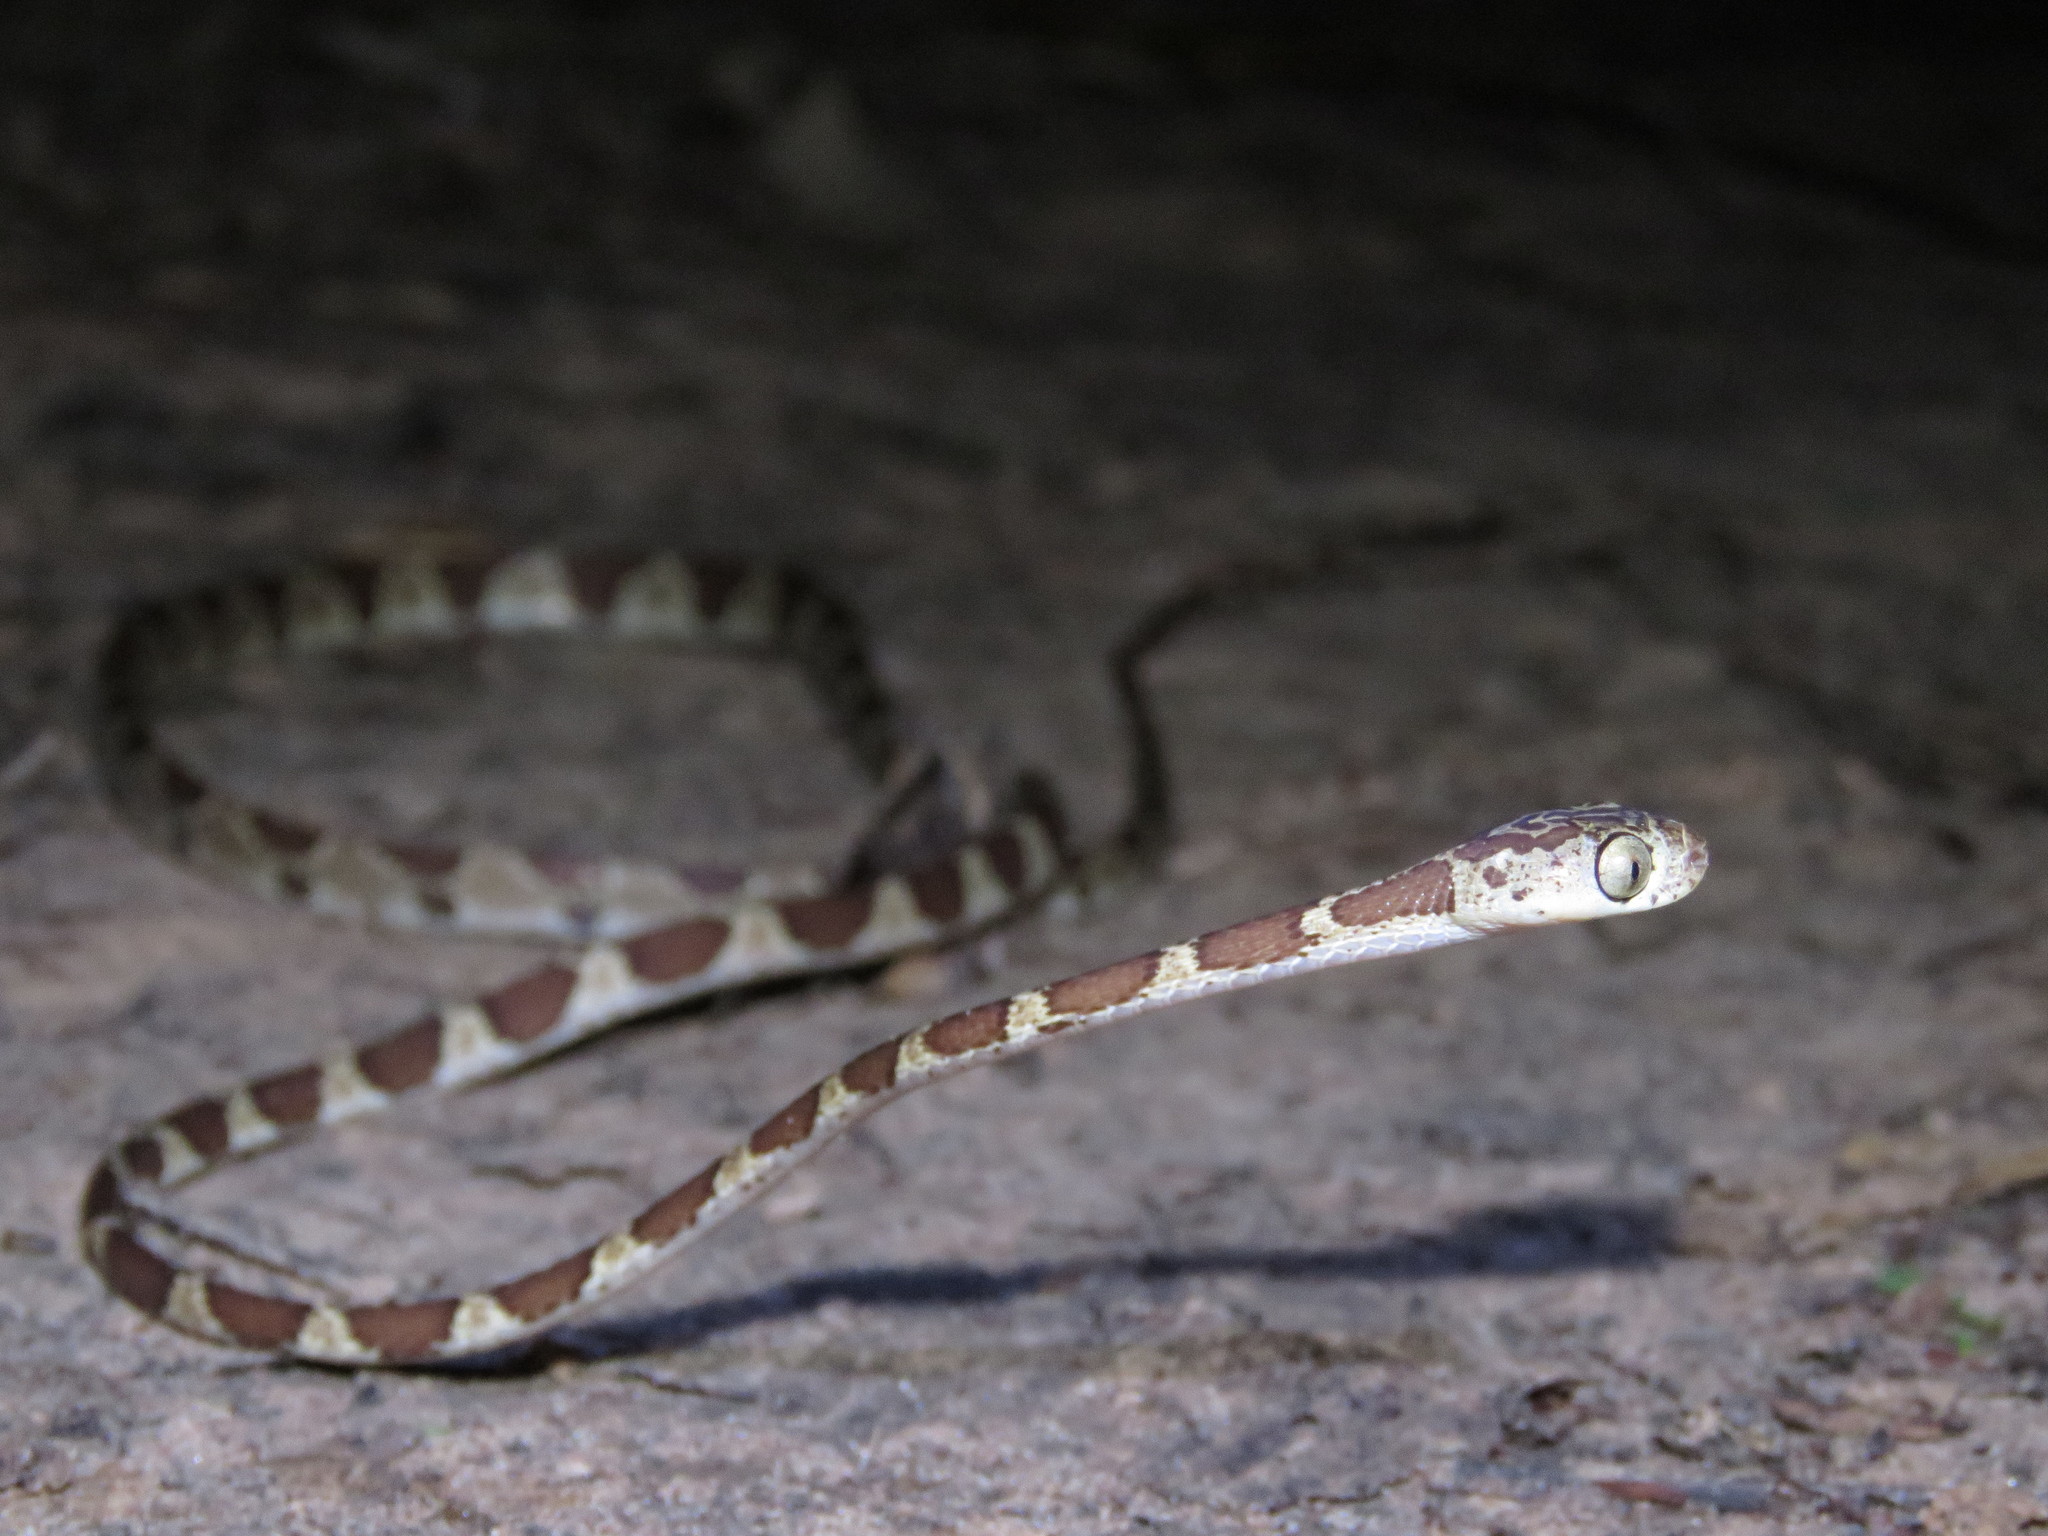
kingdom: Animalia
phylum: Chordata
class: Squamata
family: Colubridae
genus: Imantodes
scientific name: Imantodes cenchoa
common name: Blunthead tree snake
